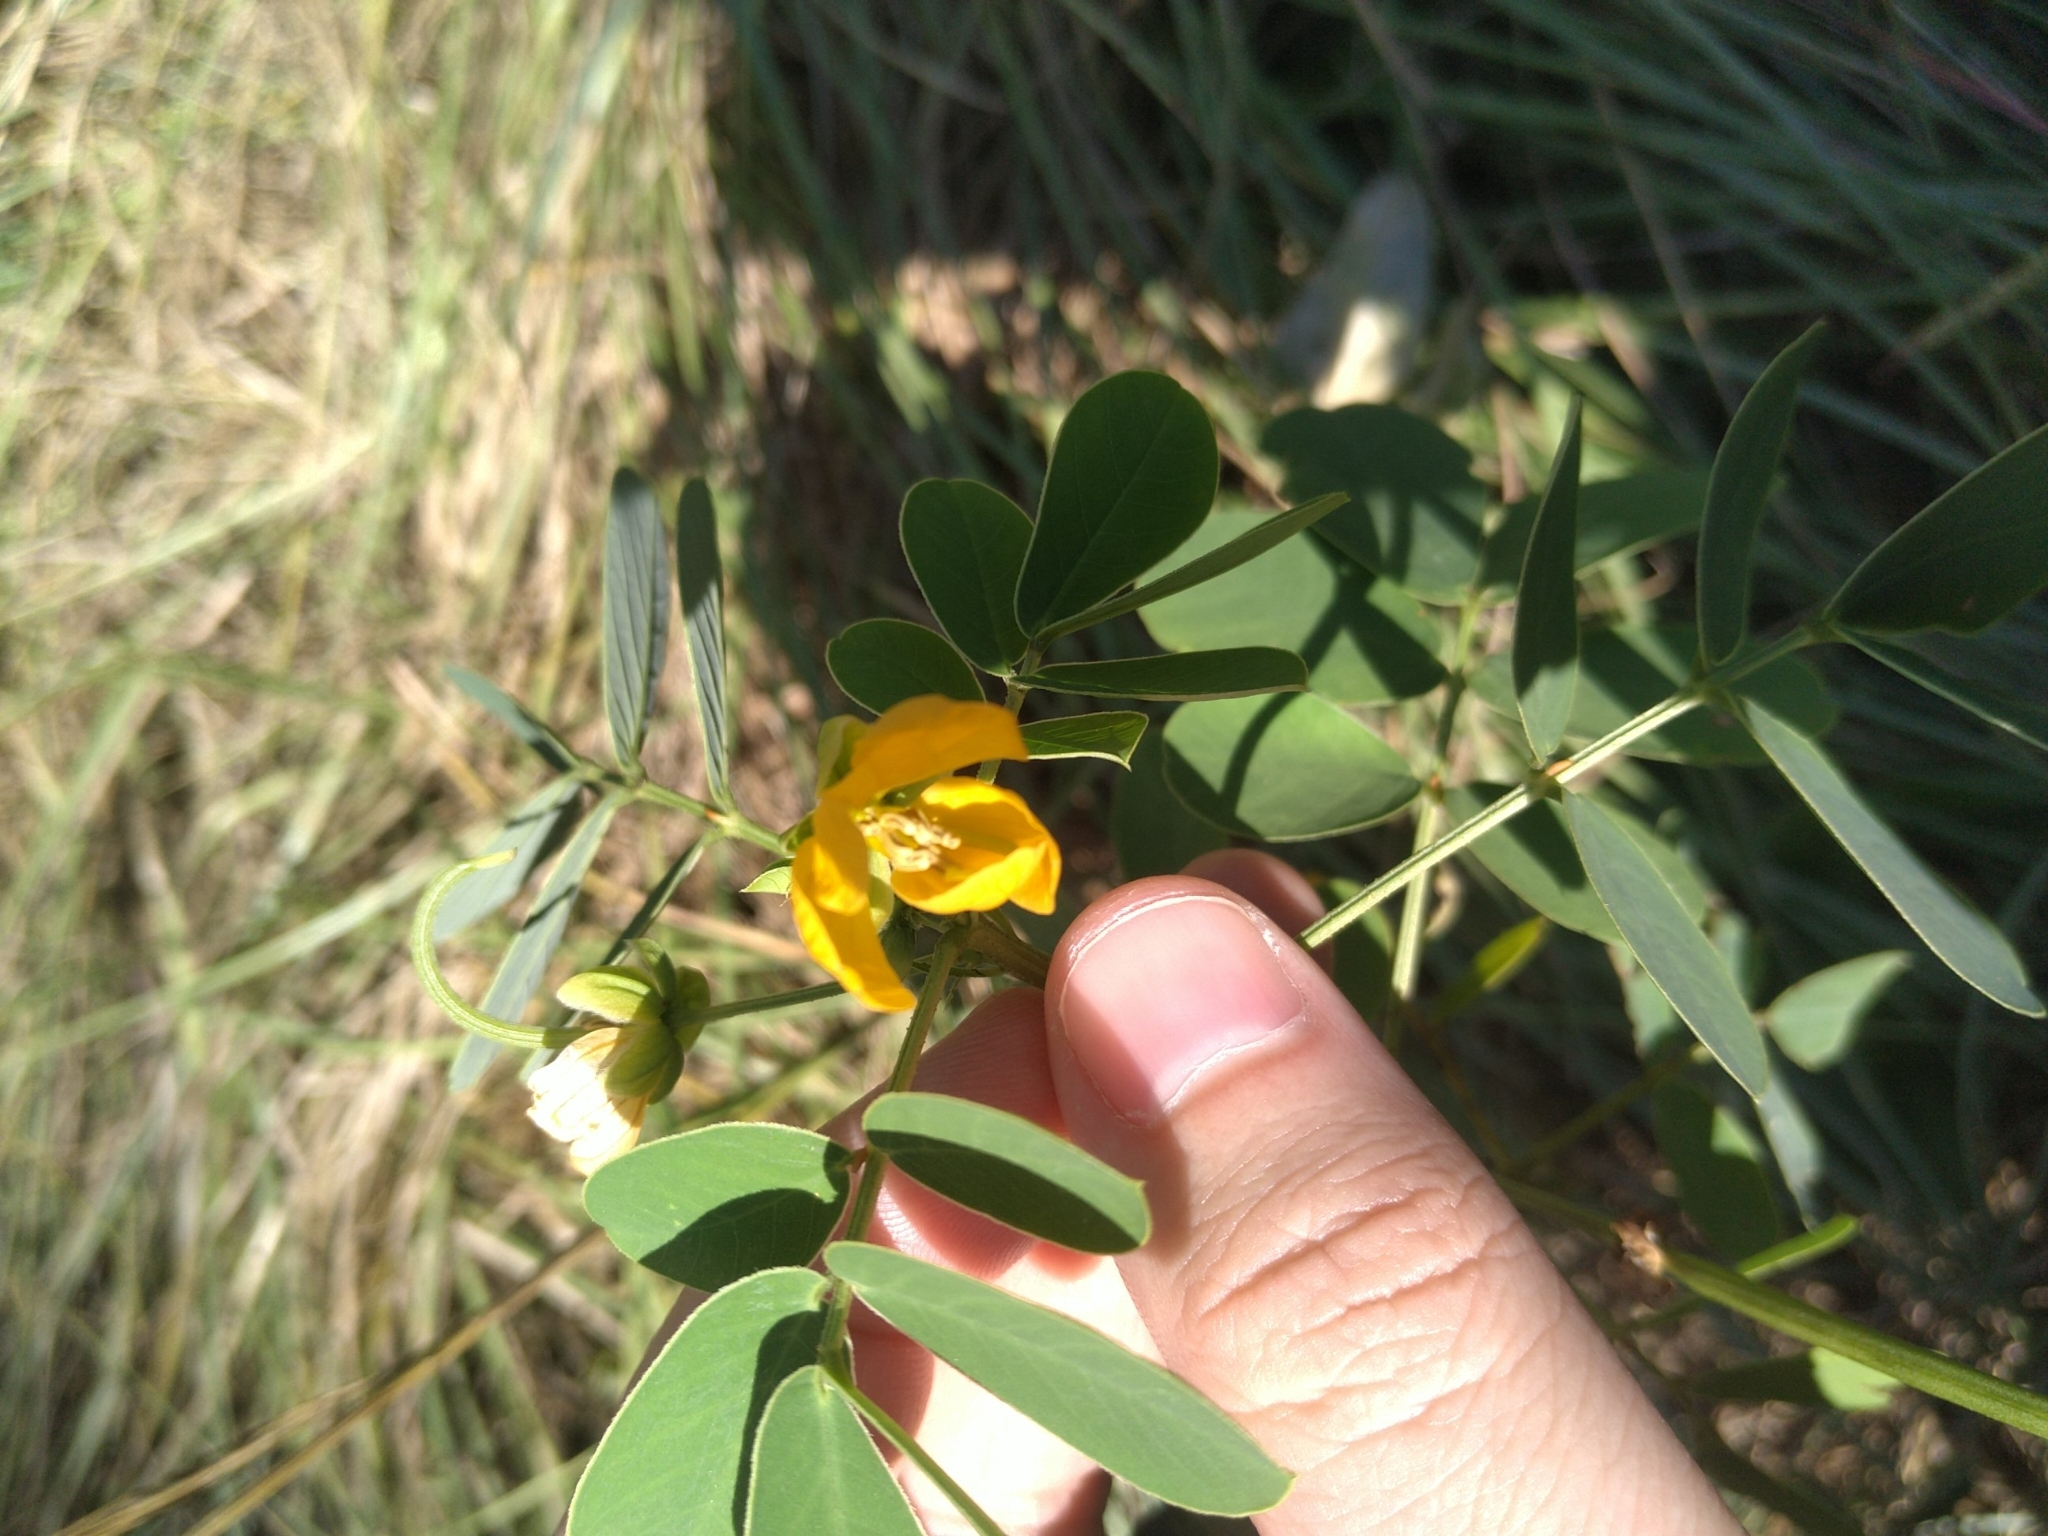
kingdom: Plantae
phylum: Tracheophyta
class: Magnoliopsida
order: Fabales
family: Fabaceae
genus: Senna
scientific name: Senna obtusifolia
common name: Java-bean
